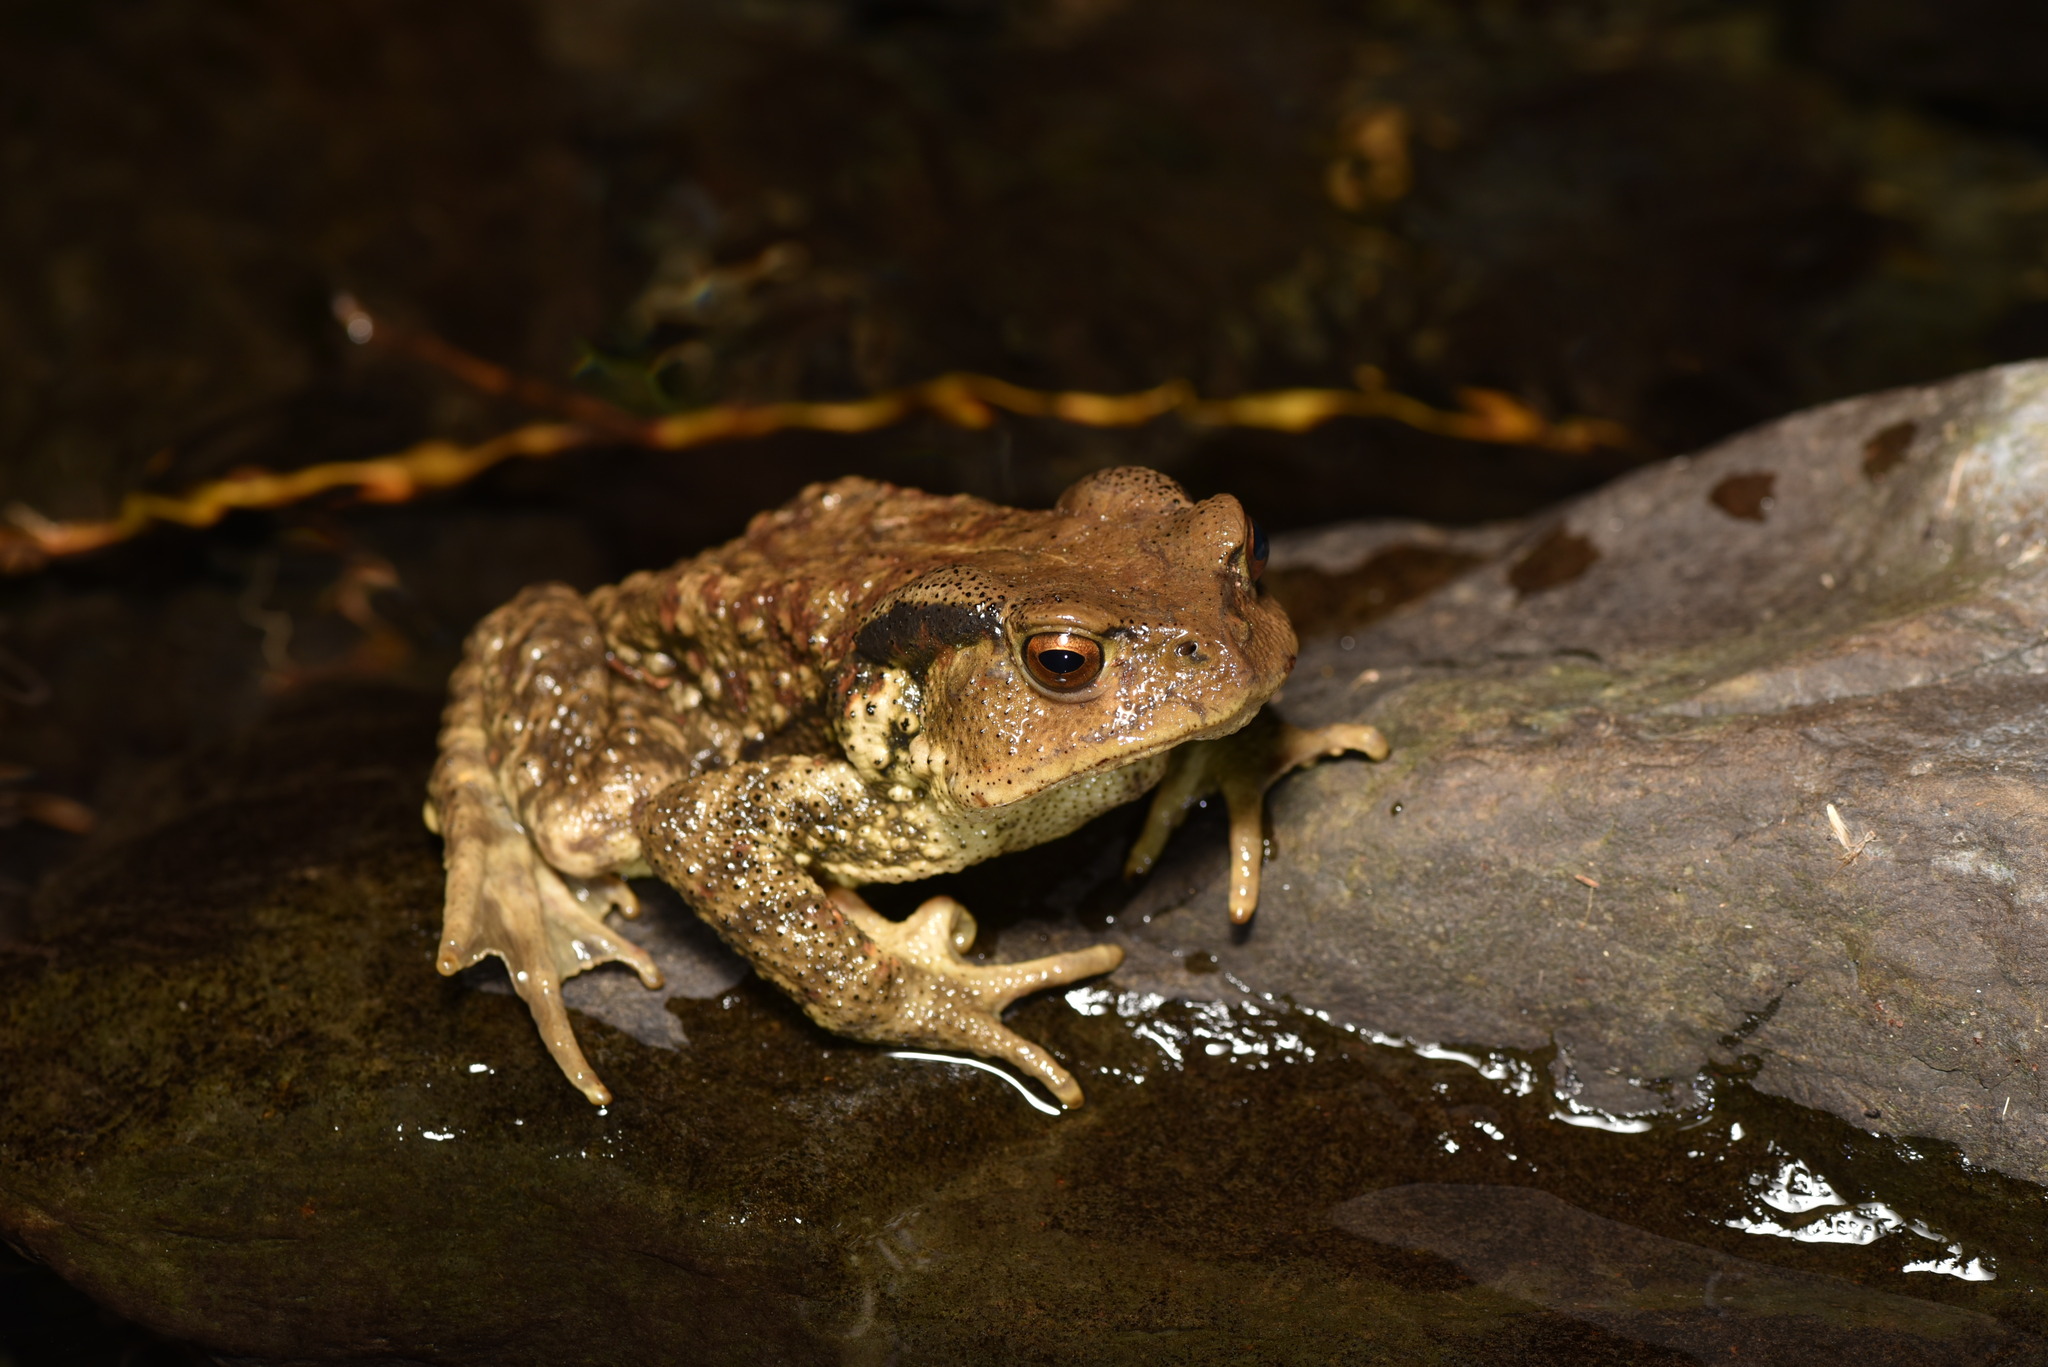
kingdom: Animalia
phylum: Chordata
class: Amphibia
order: Anura
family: Bufonidae
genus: Bufo
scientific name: Bufo bankorensis
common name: Bankor toad
